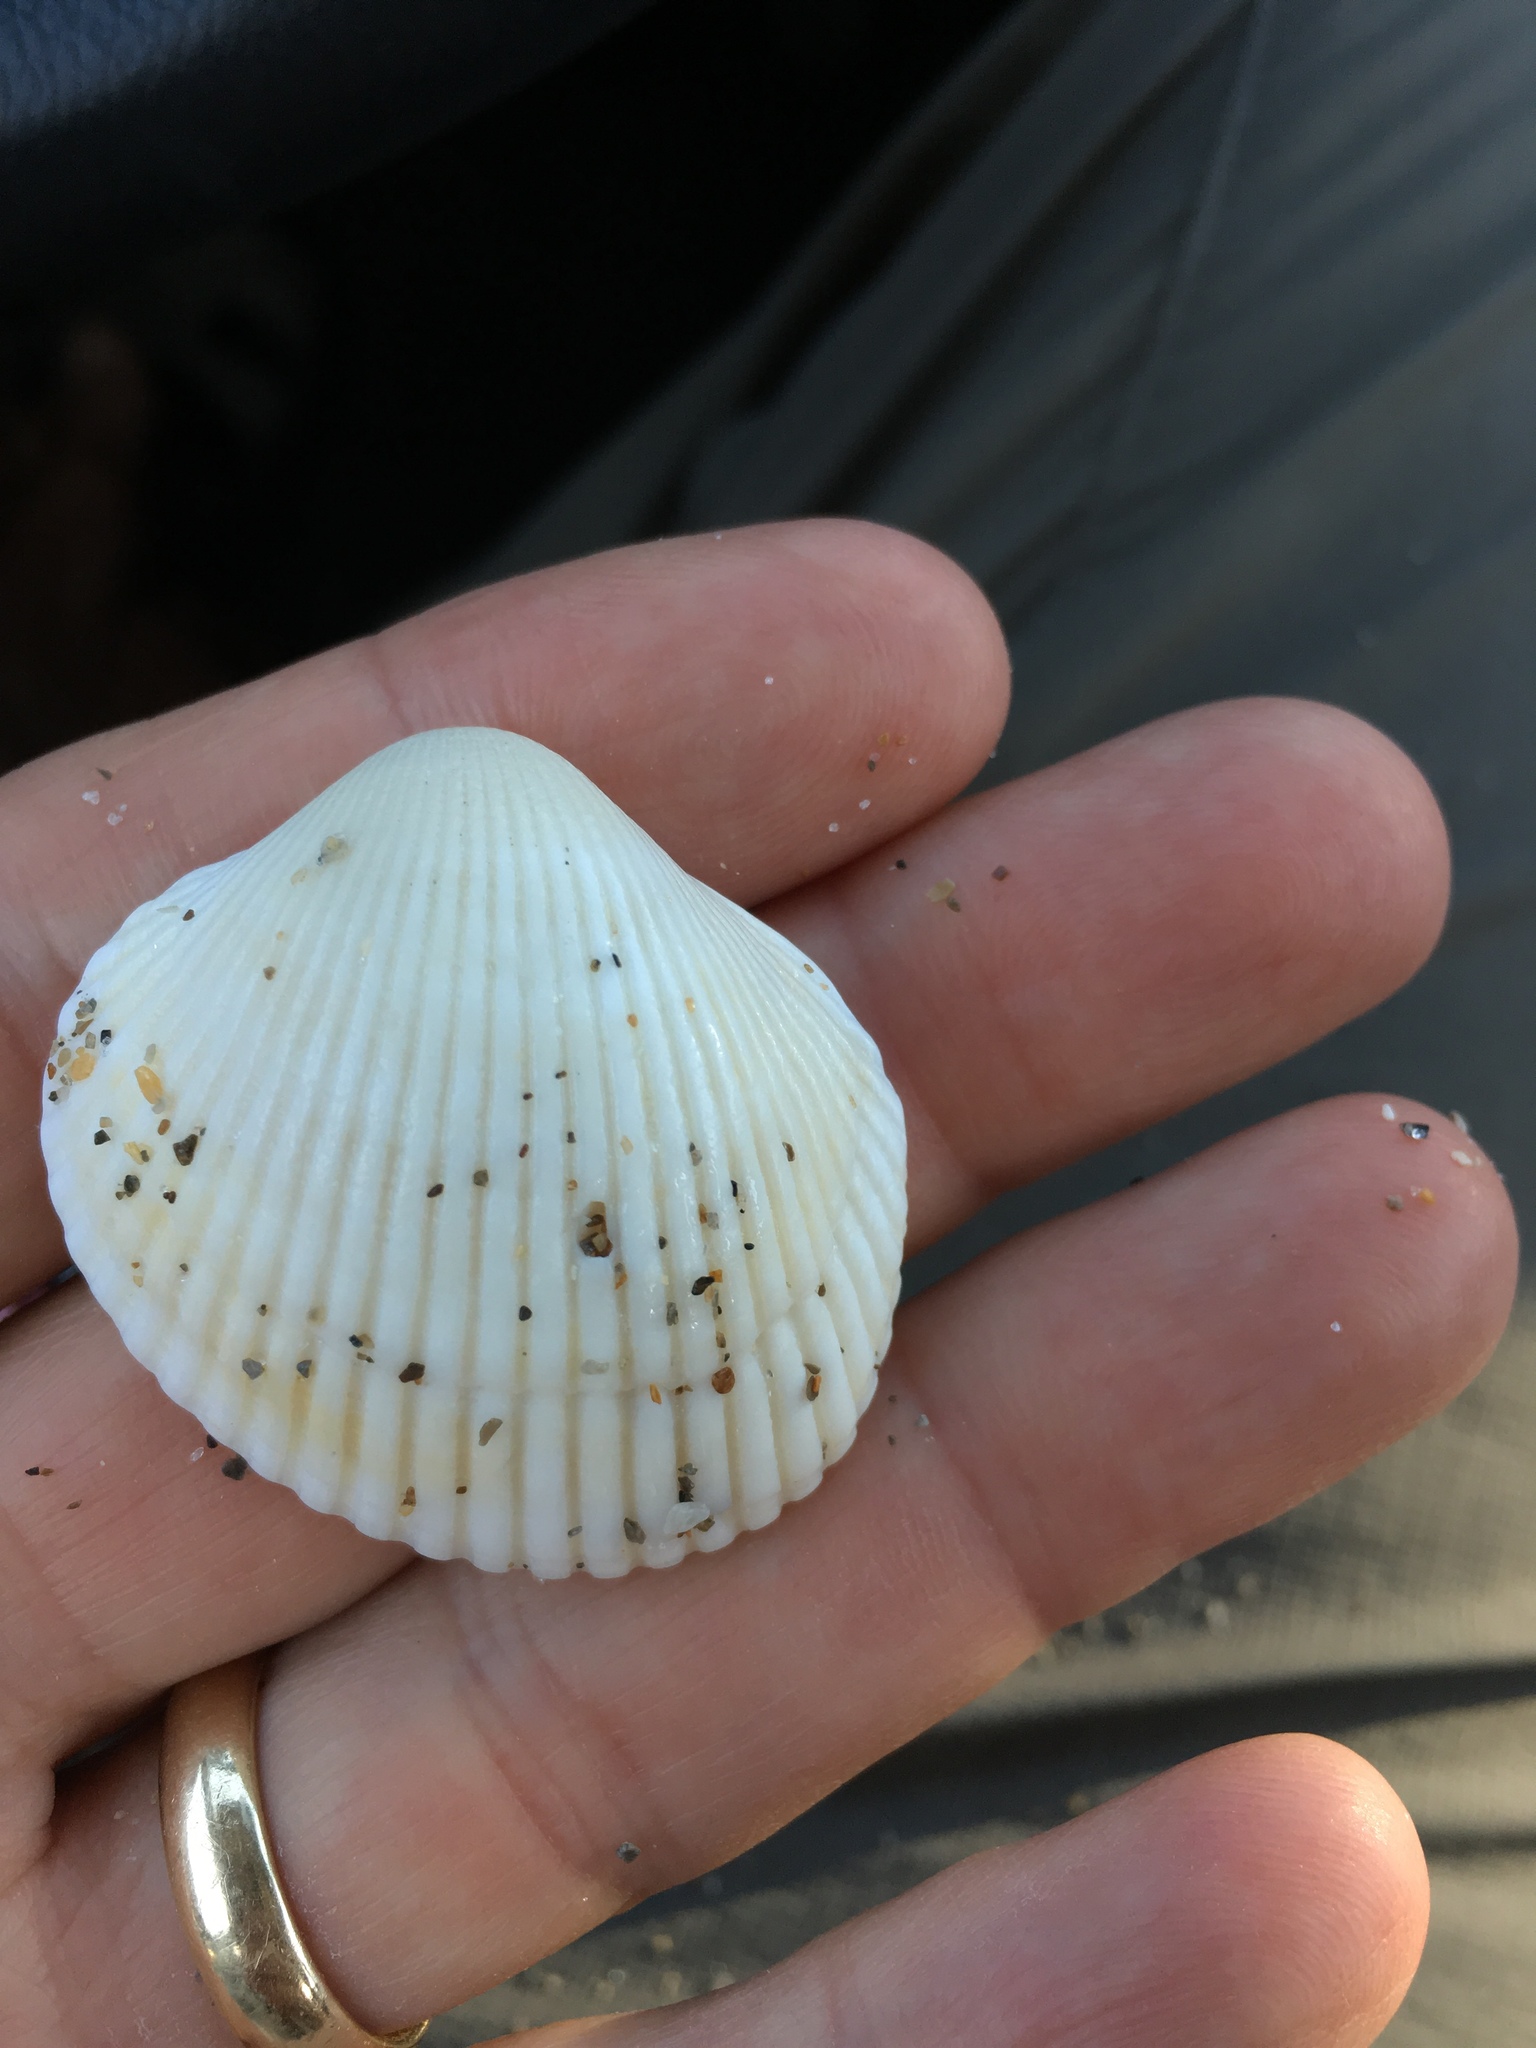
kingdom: Animalia
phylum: Mollusca
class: Bivalvia
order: Arcida
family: Arcidae
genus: Lunarca
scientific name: Lunarca ovalis
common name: Blood ark
